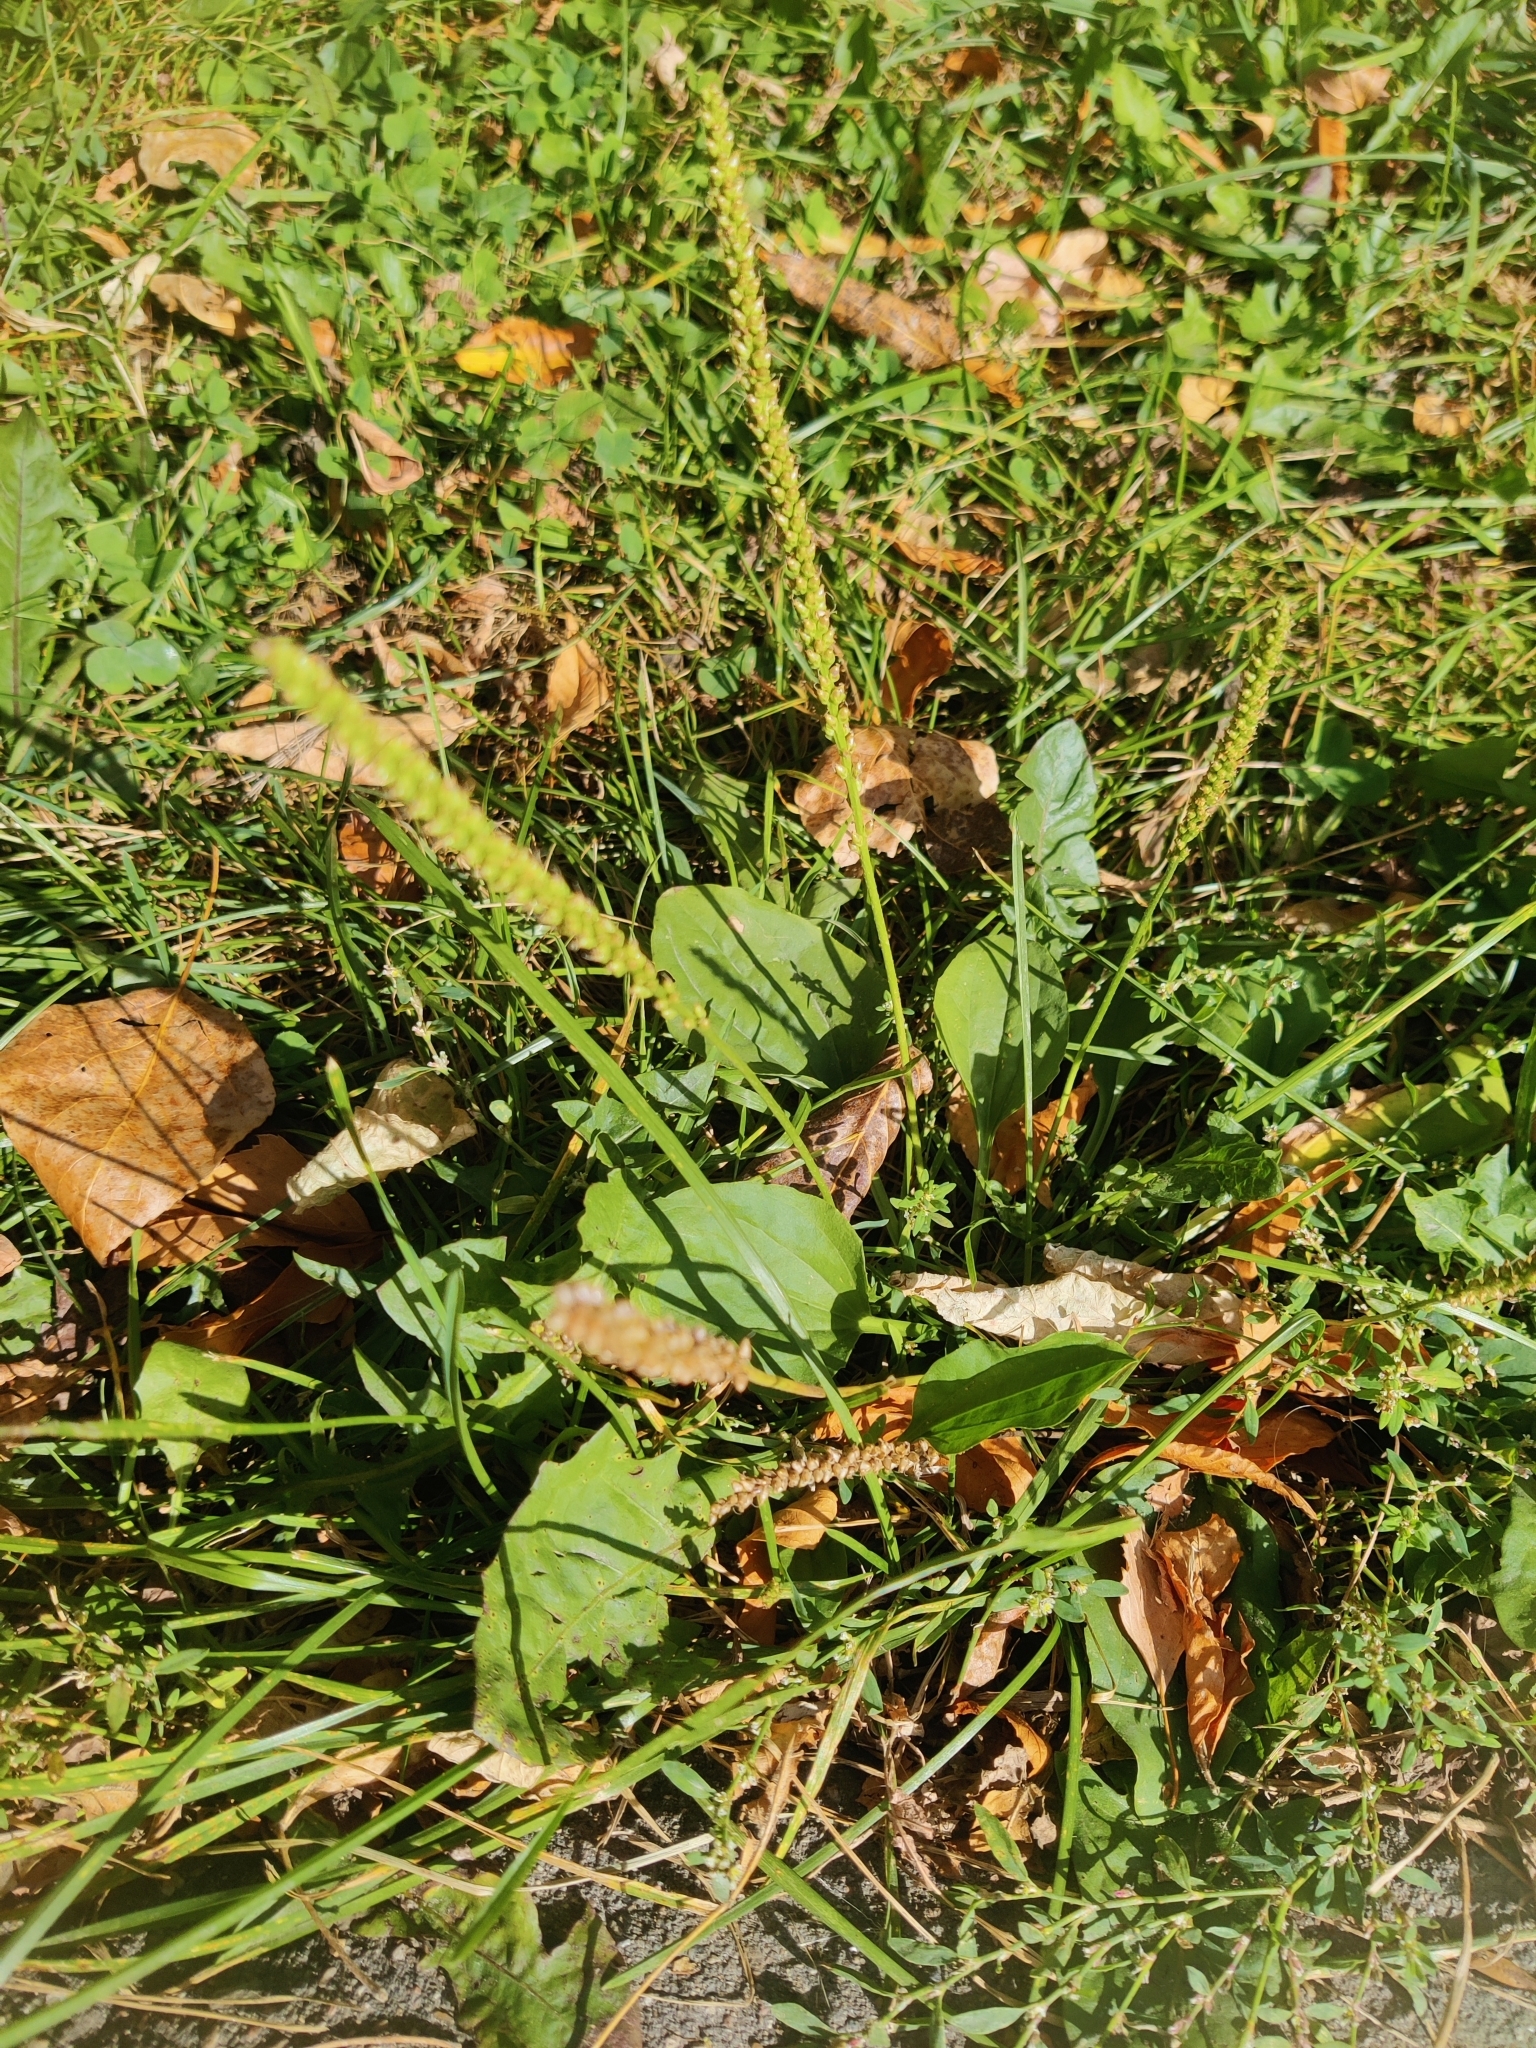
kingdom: Plantae
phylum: Tracheophyta
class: Magnoliopsida
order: Lamiales
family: Plantaginaceae
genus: Plantago
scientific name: Plantago major
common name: Common plantain
